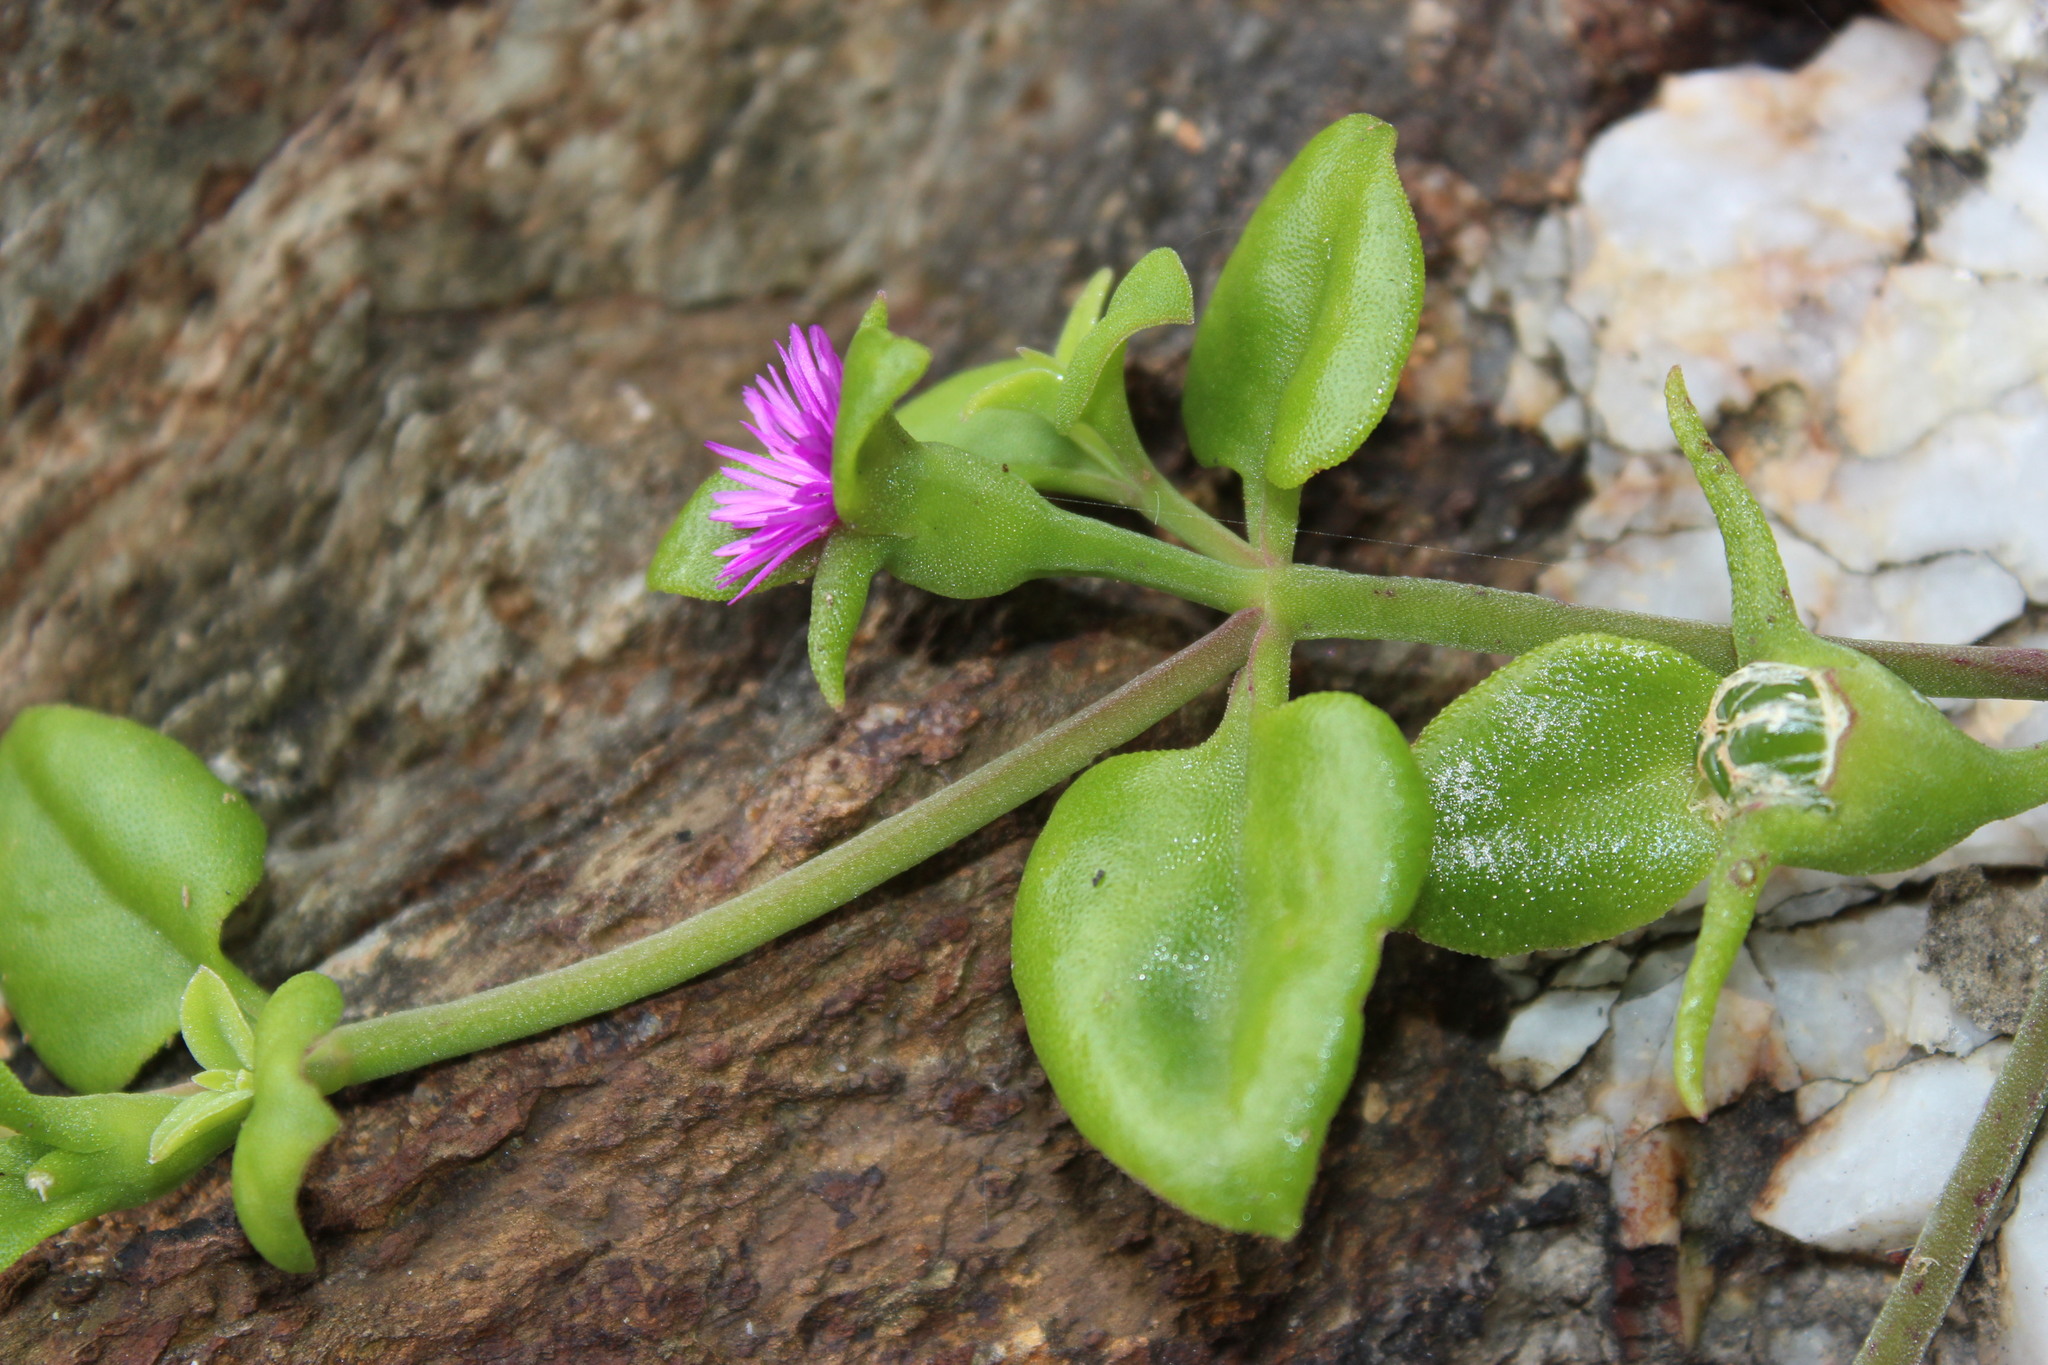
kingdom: Plantae
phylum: Tracheophyta
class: Magnoliopsida
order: Caryophyllales
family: Aizoaceae
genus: Mesembryanthemum
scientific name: Mesembryanthemum cordifolium
